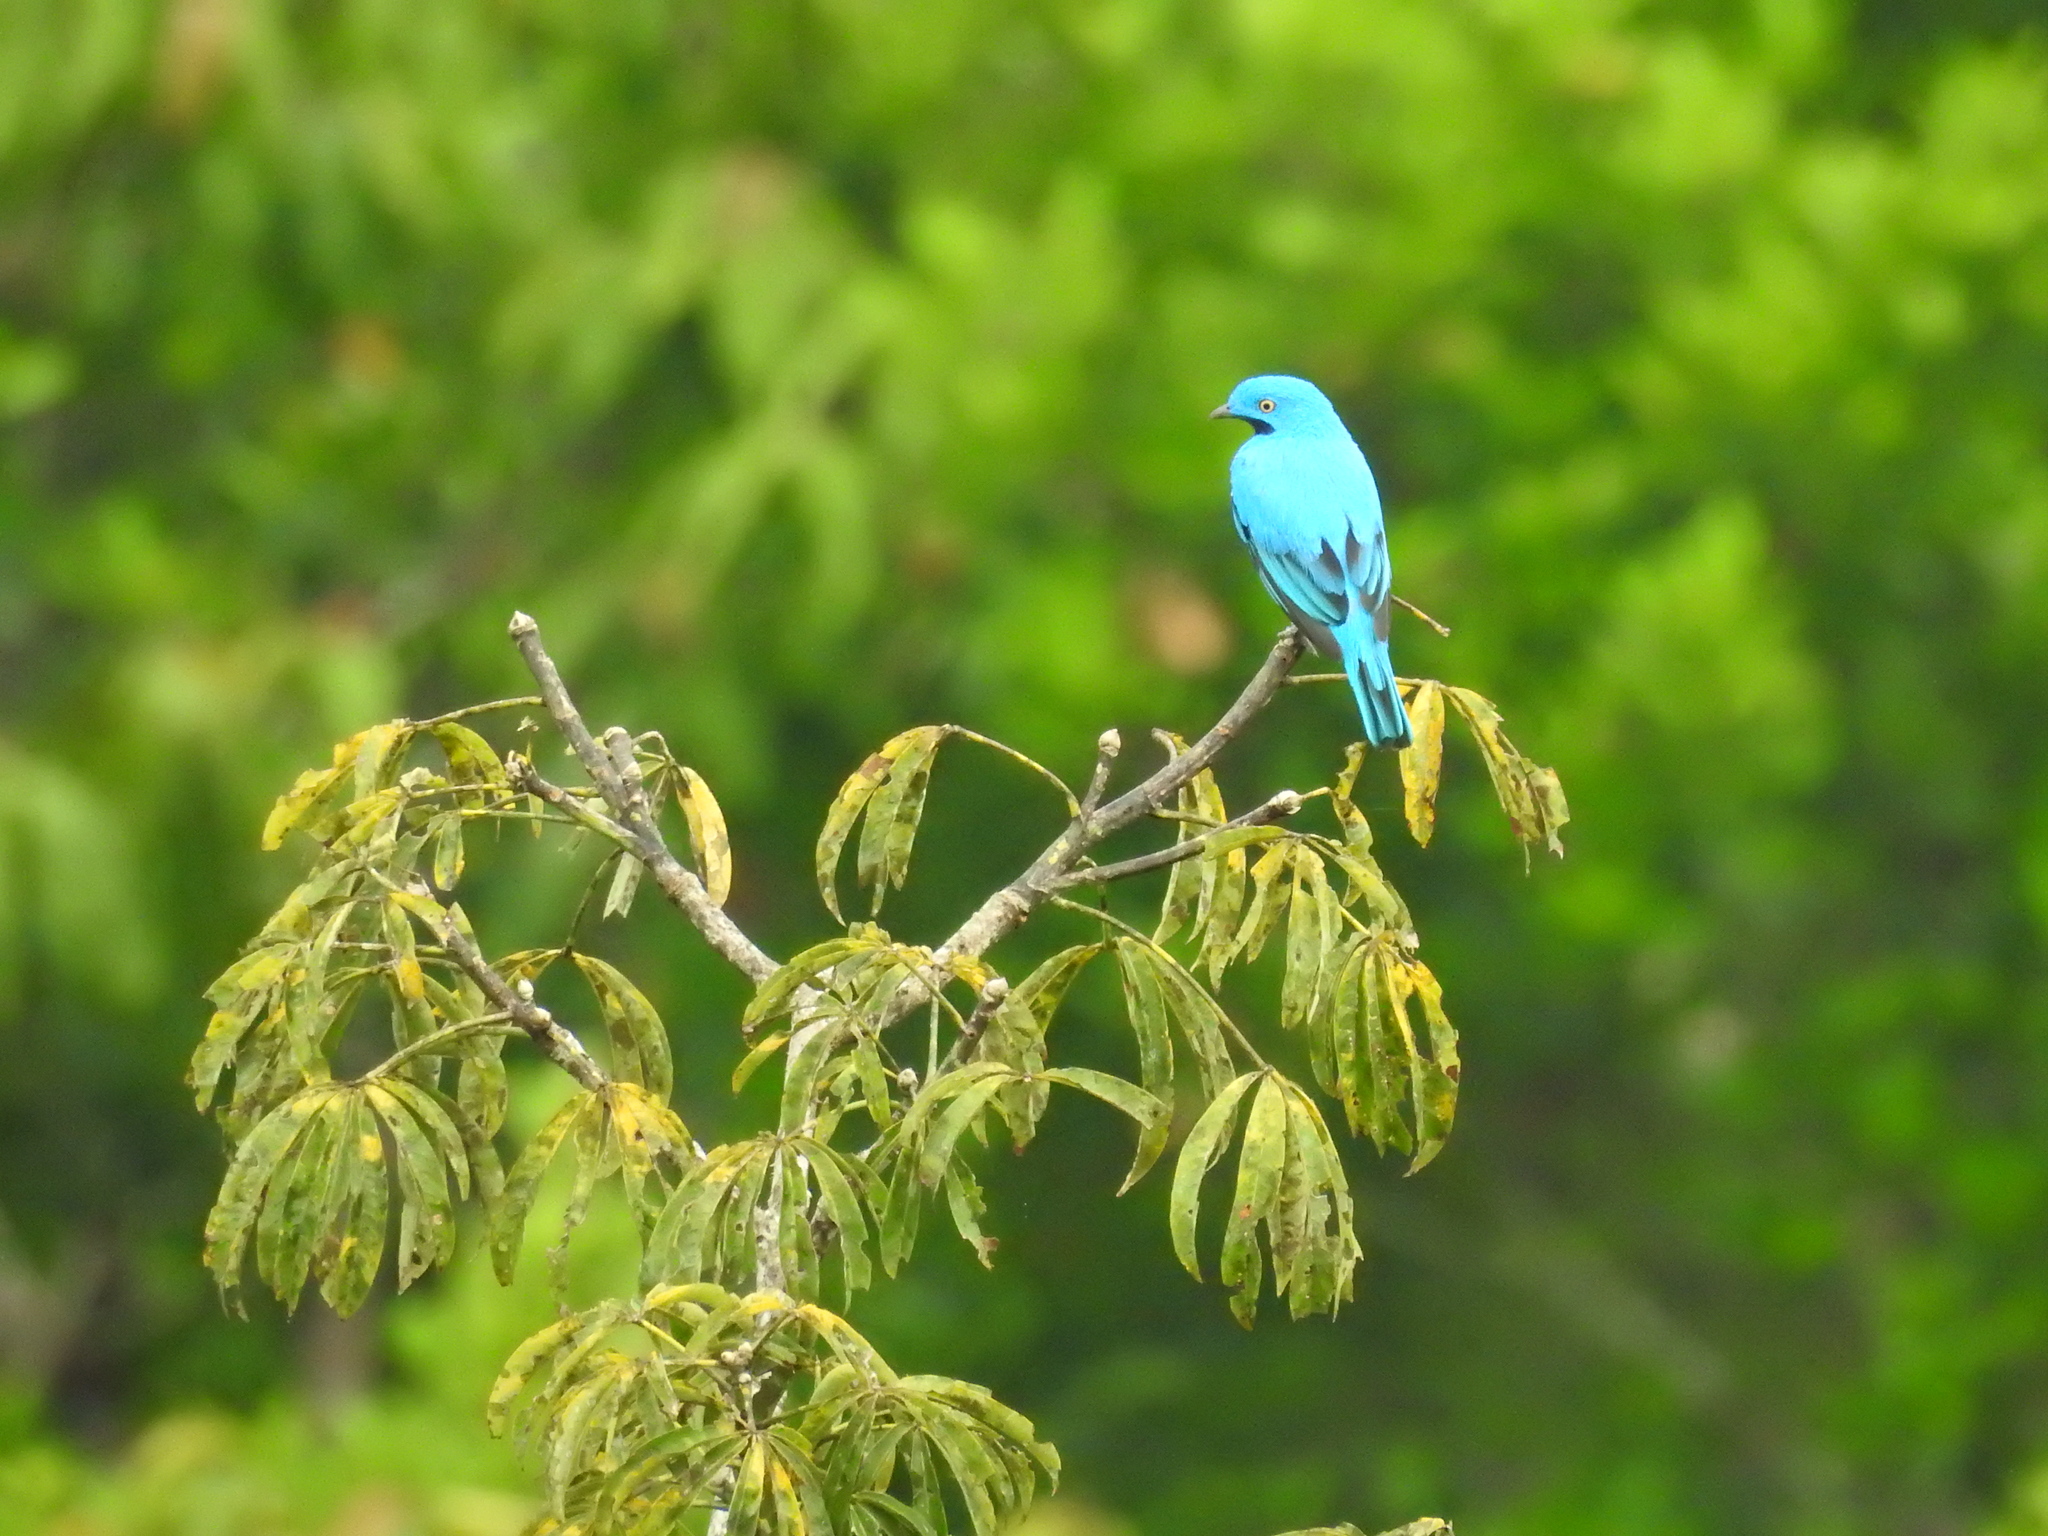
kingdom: Animalia
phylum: Chordata
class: Aves
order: Passeriformes
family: Cotingidae
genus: Cotinga
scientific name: Cotinga maynana
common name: Plum-throated cotinga
